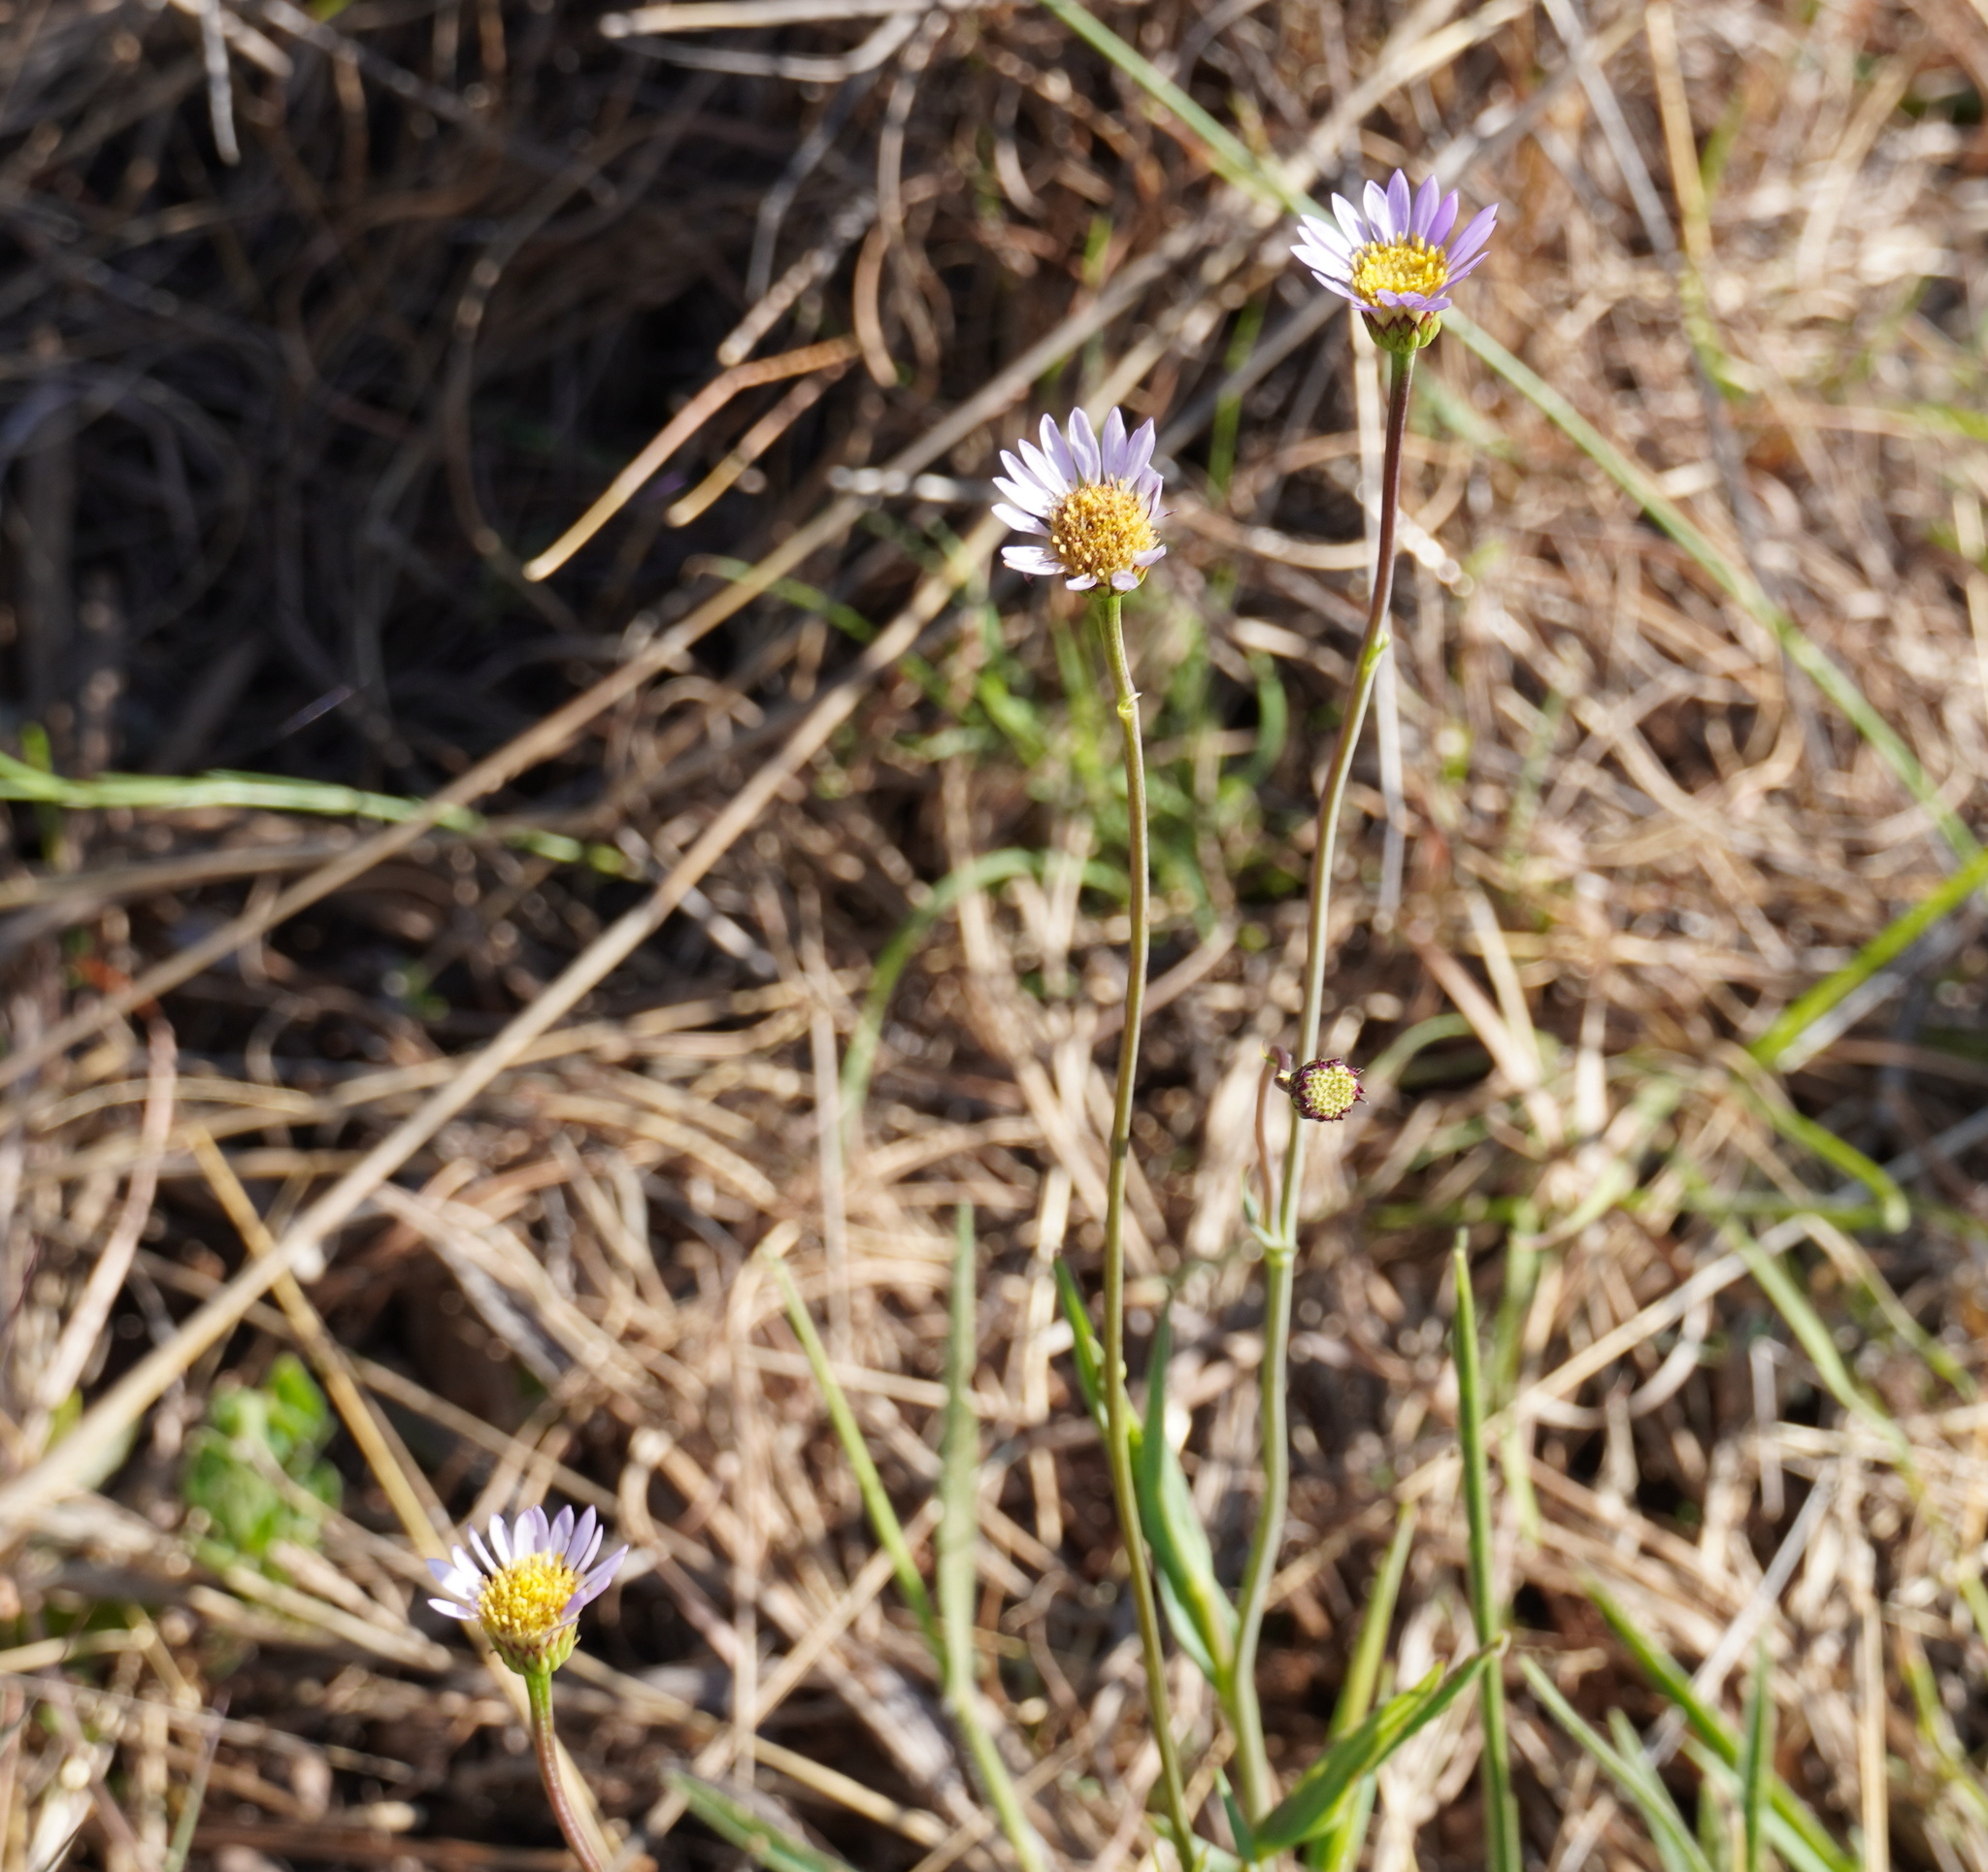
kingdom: Plantae
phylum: Tracheophyta
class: Magnoliopsida
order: Asterales
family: Asteraceae
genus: Afroaster
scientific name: Afroaster serrulatus
